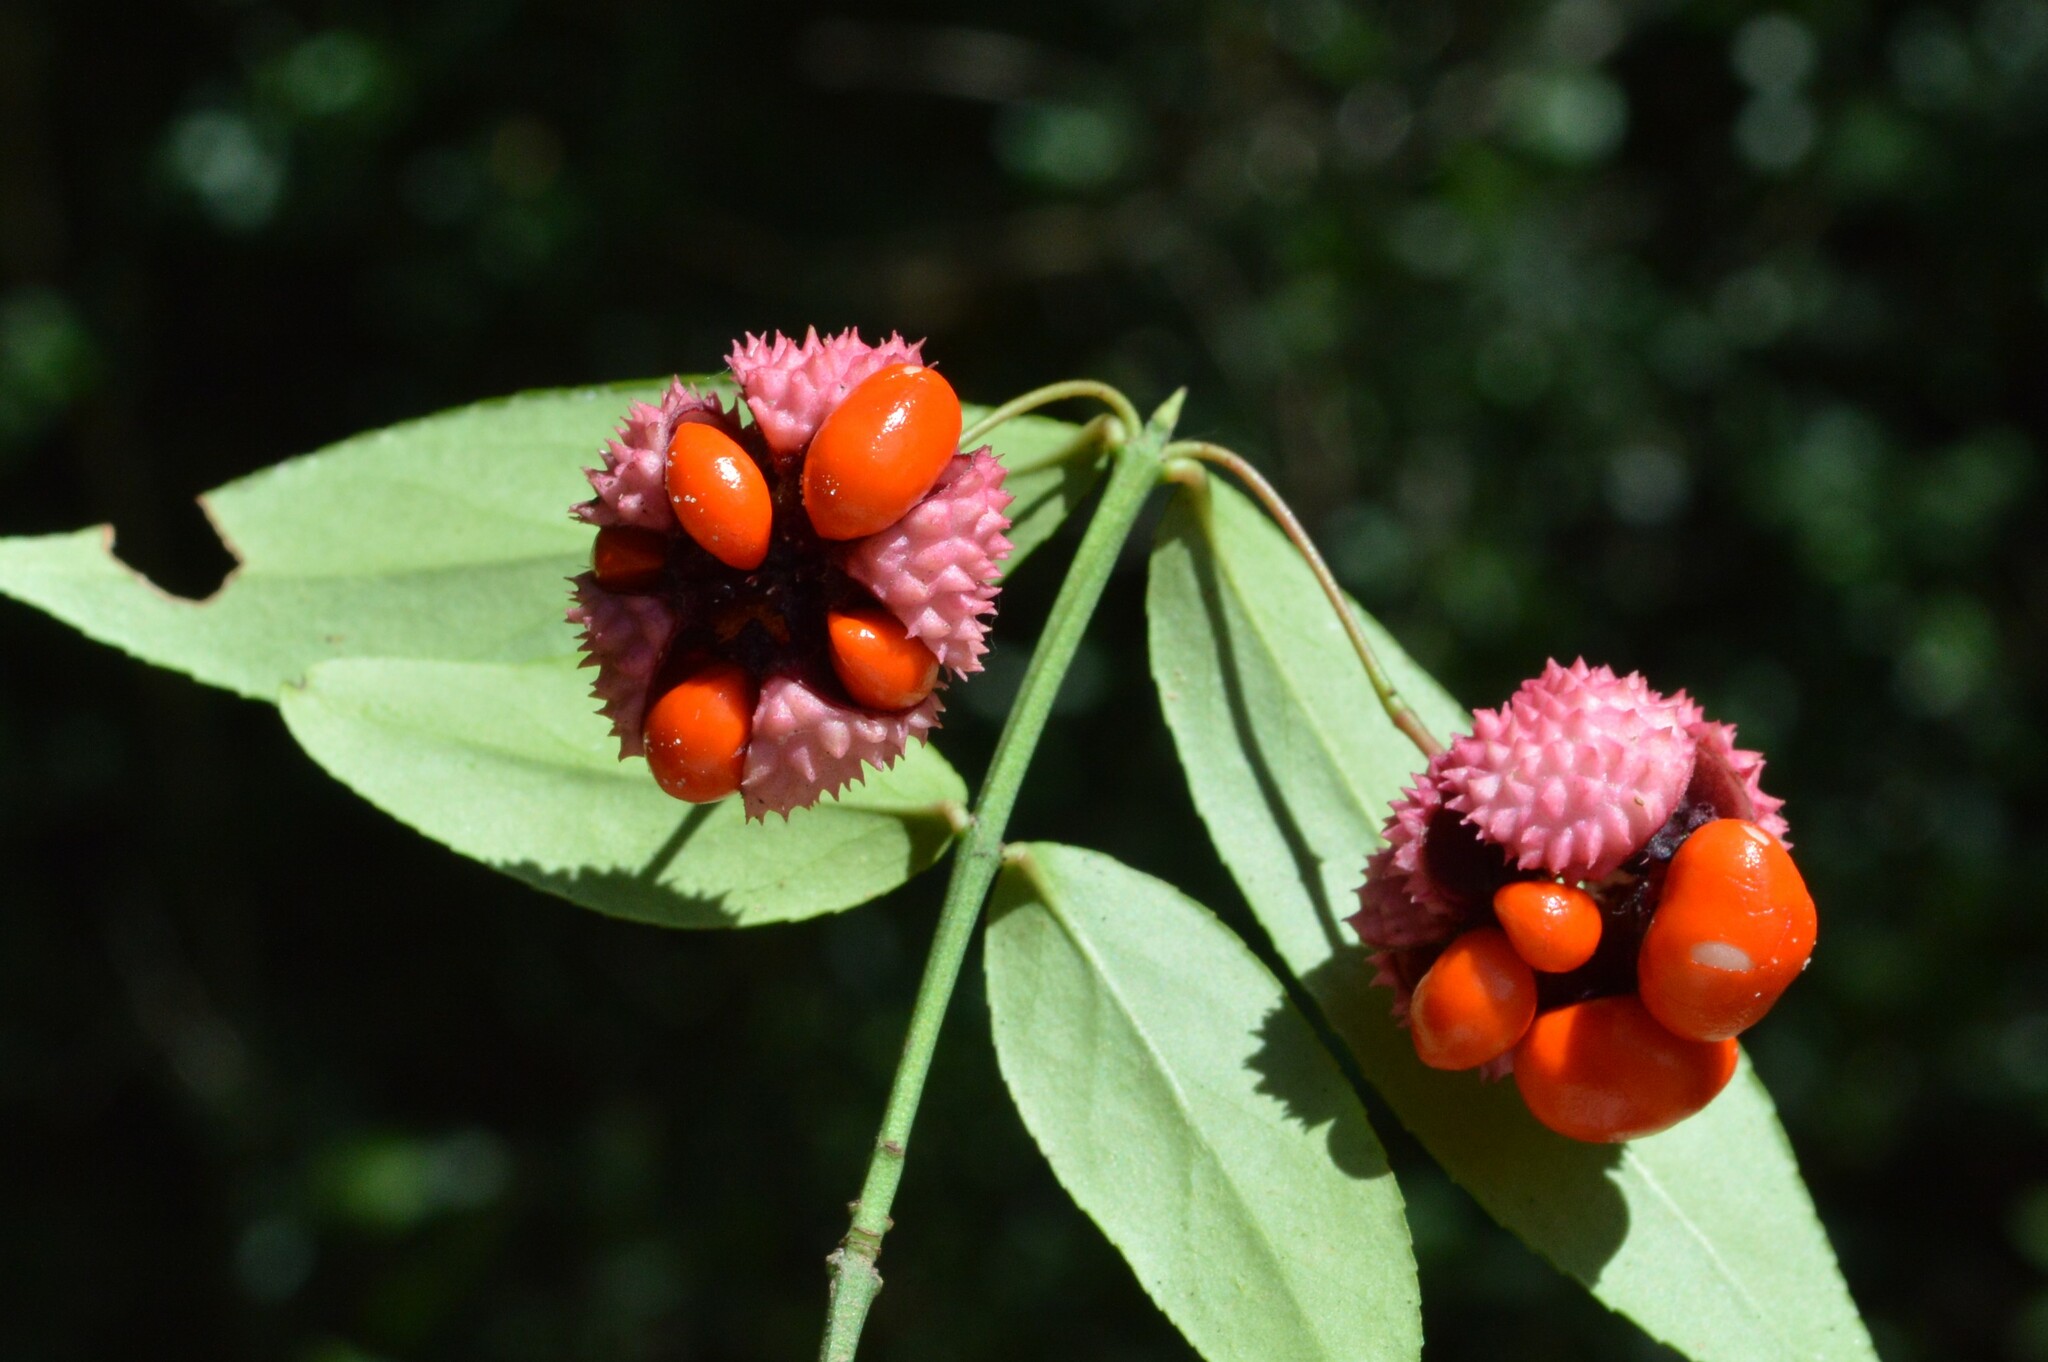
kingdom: Plantae
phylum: Tracheophyta
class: Magnoliopsida
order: Celastrales
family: Celastraceae
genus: Euonymus
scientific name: Euonymus americanus
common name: Bursting-heart
